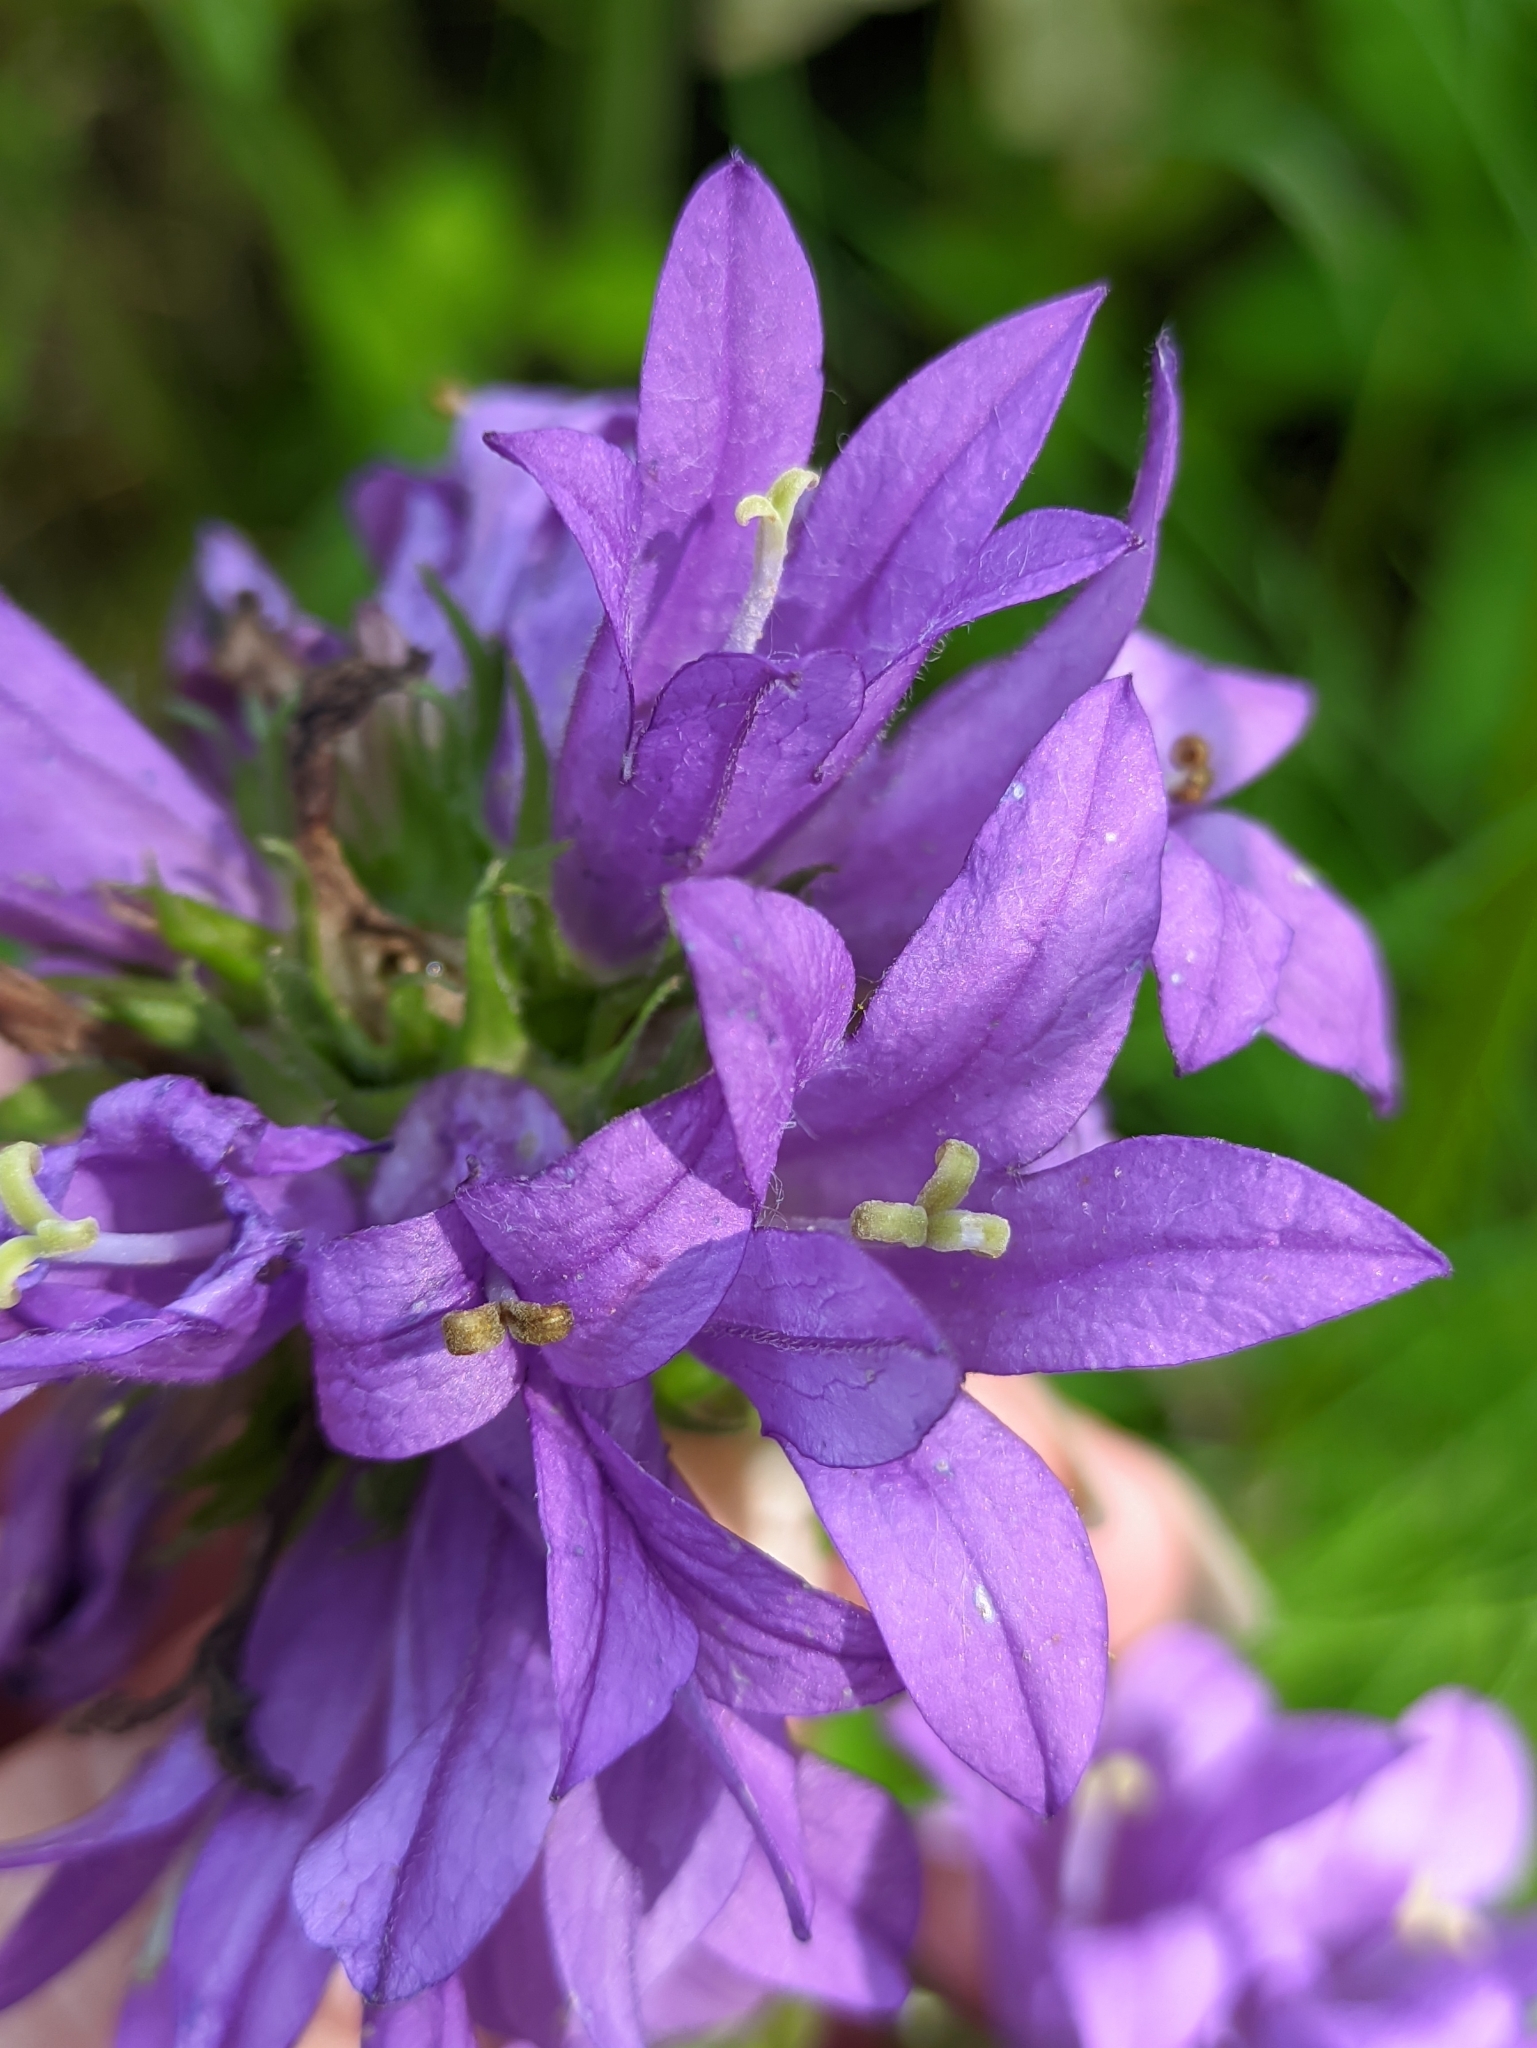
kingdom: Plantae
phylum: Tracheophyta
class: Magnoliopsida
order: Asterales
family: Campanulaceae
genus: Campanula
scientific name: Campanula glomerata
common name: Clustered bellflower
